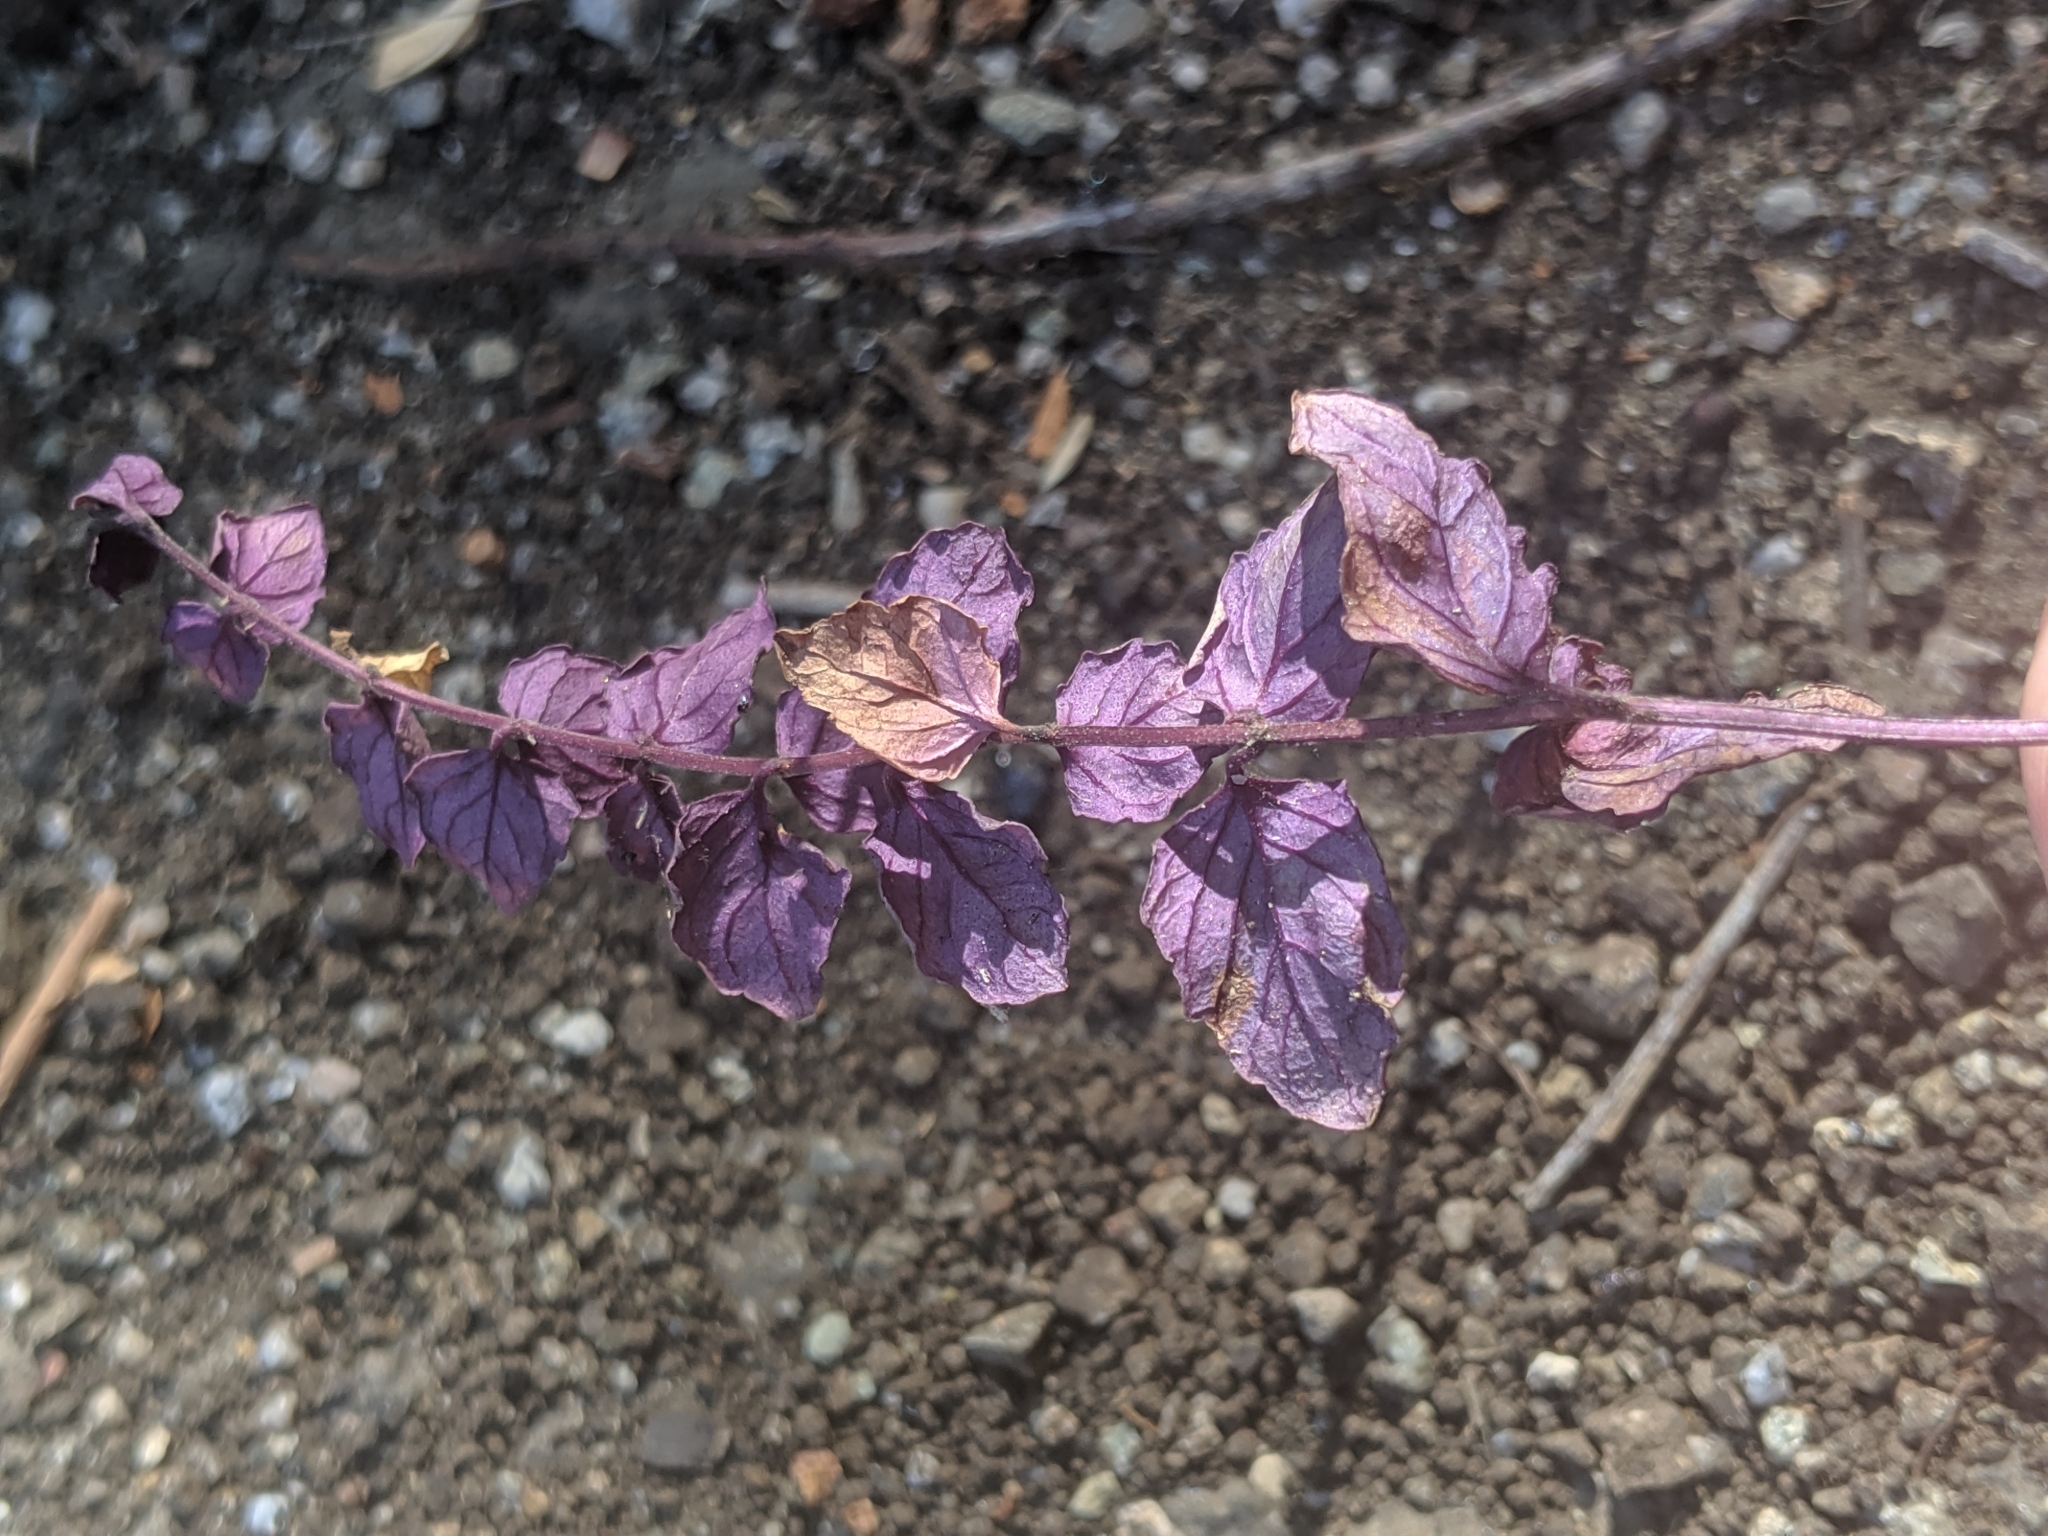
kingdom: Plantae
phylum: Tracheophyta
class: Magnoliopsida
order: Lamiales
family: Lamiaceae
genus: Micromeria
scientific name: Micromeria douglasii
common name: Yerba buena
